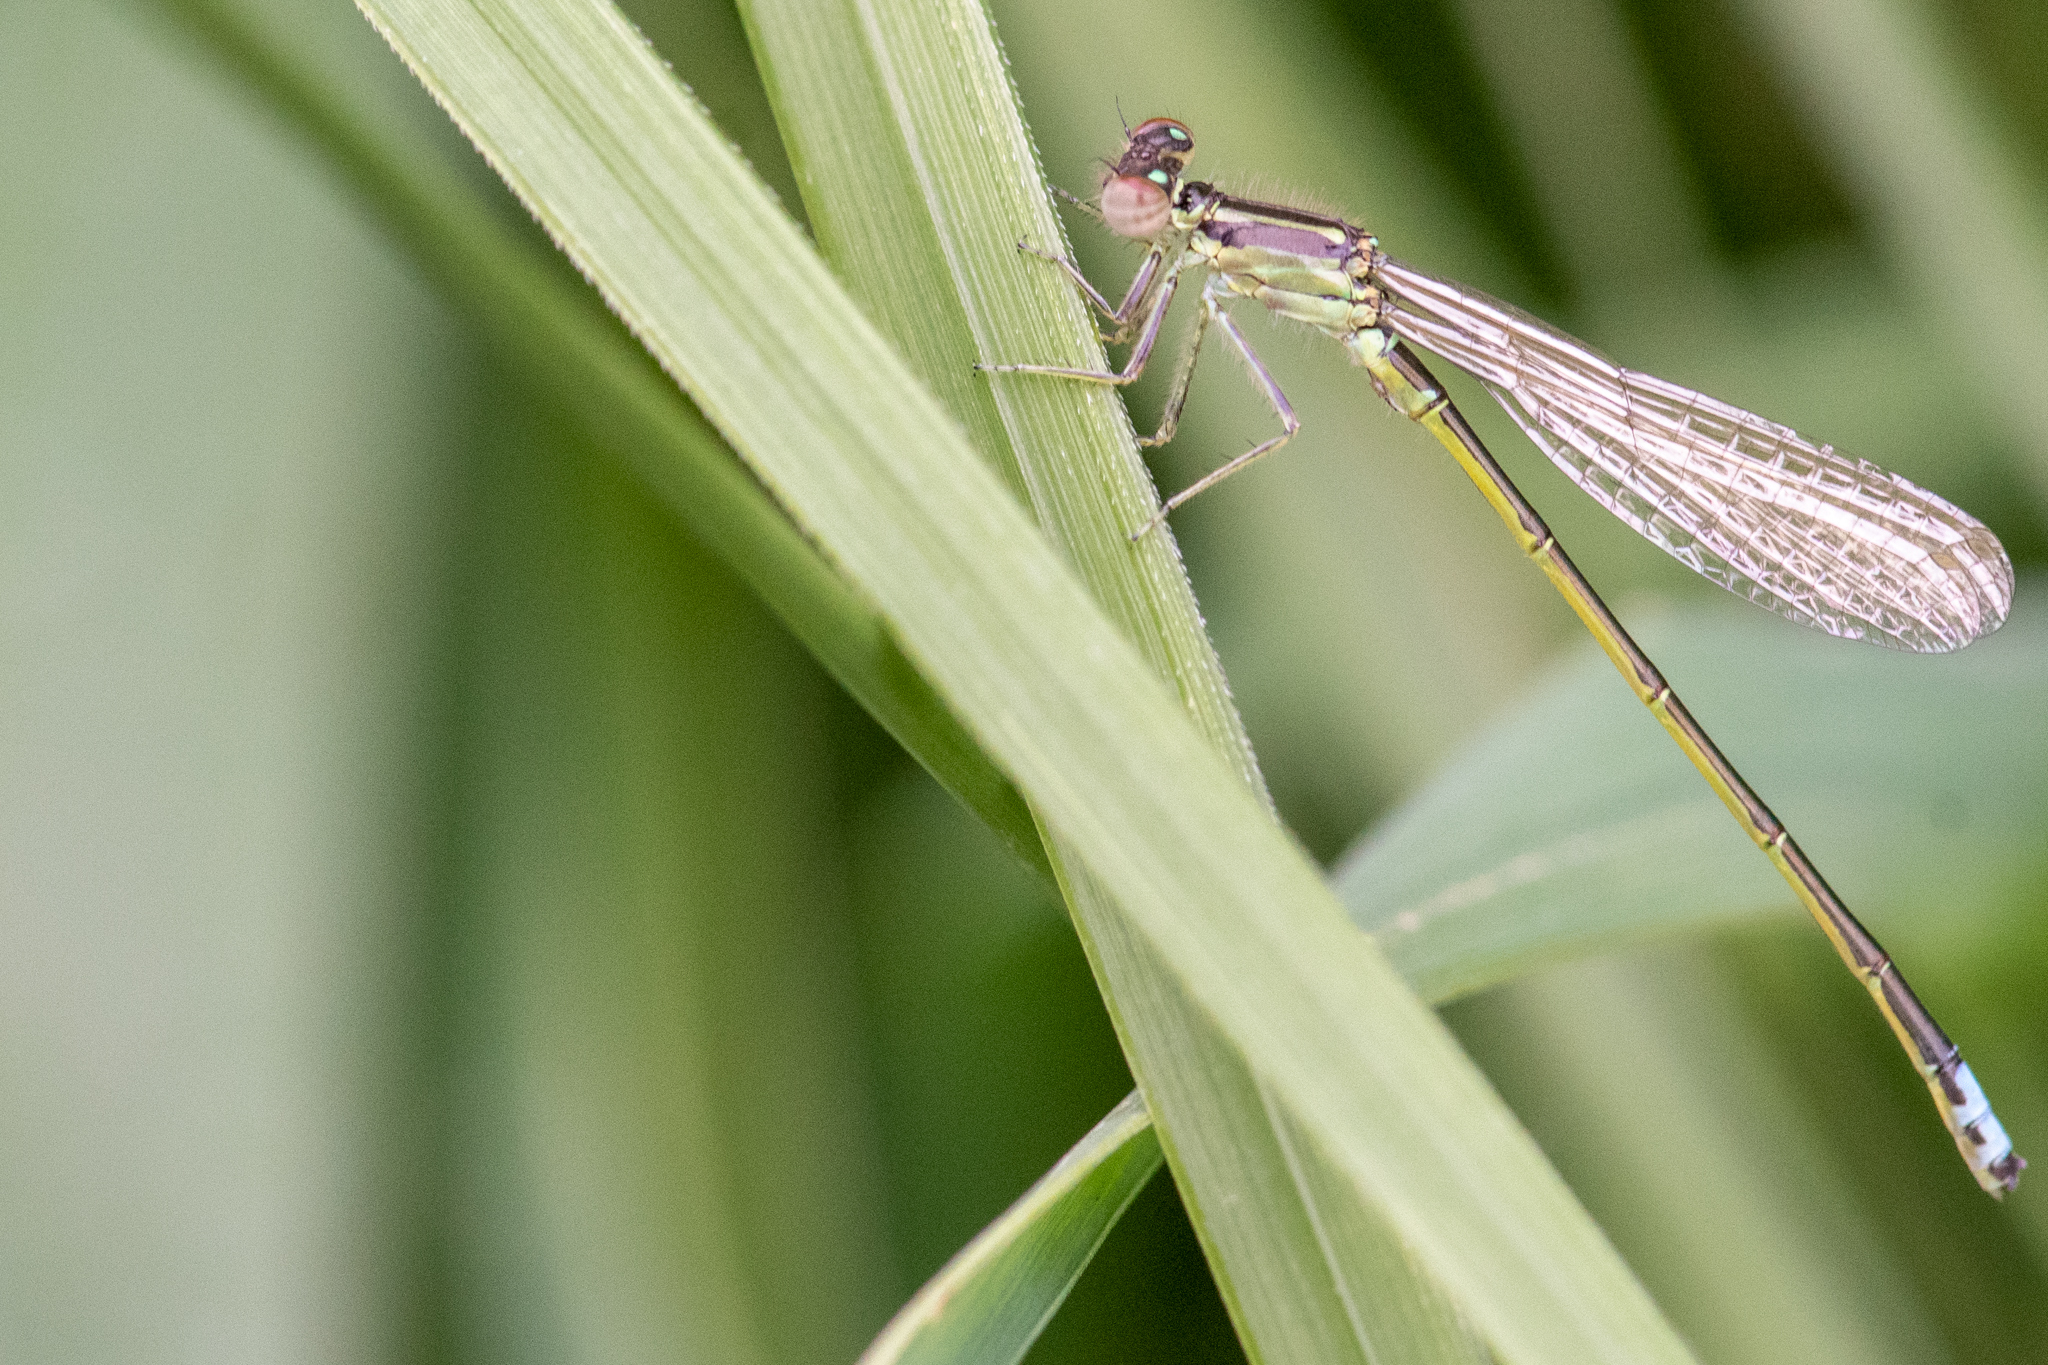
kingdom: Animalia
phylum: Arthropoda
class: Insecta
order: Odonata
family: Coenagrionidae
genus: Ischnura
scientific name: Ischnura verticalis
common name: Eastern forktail
